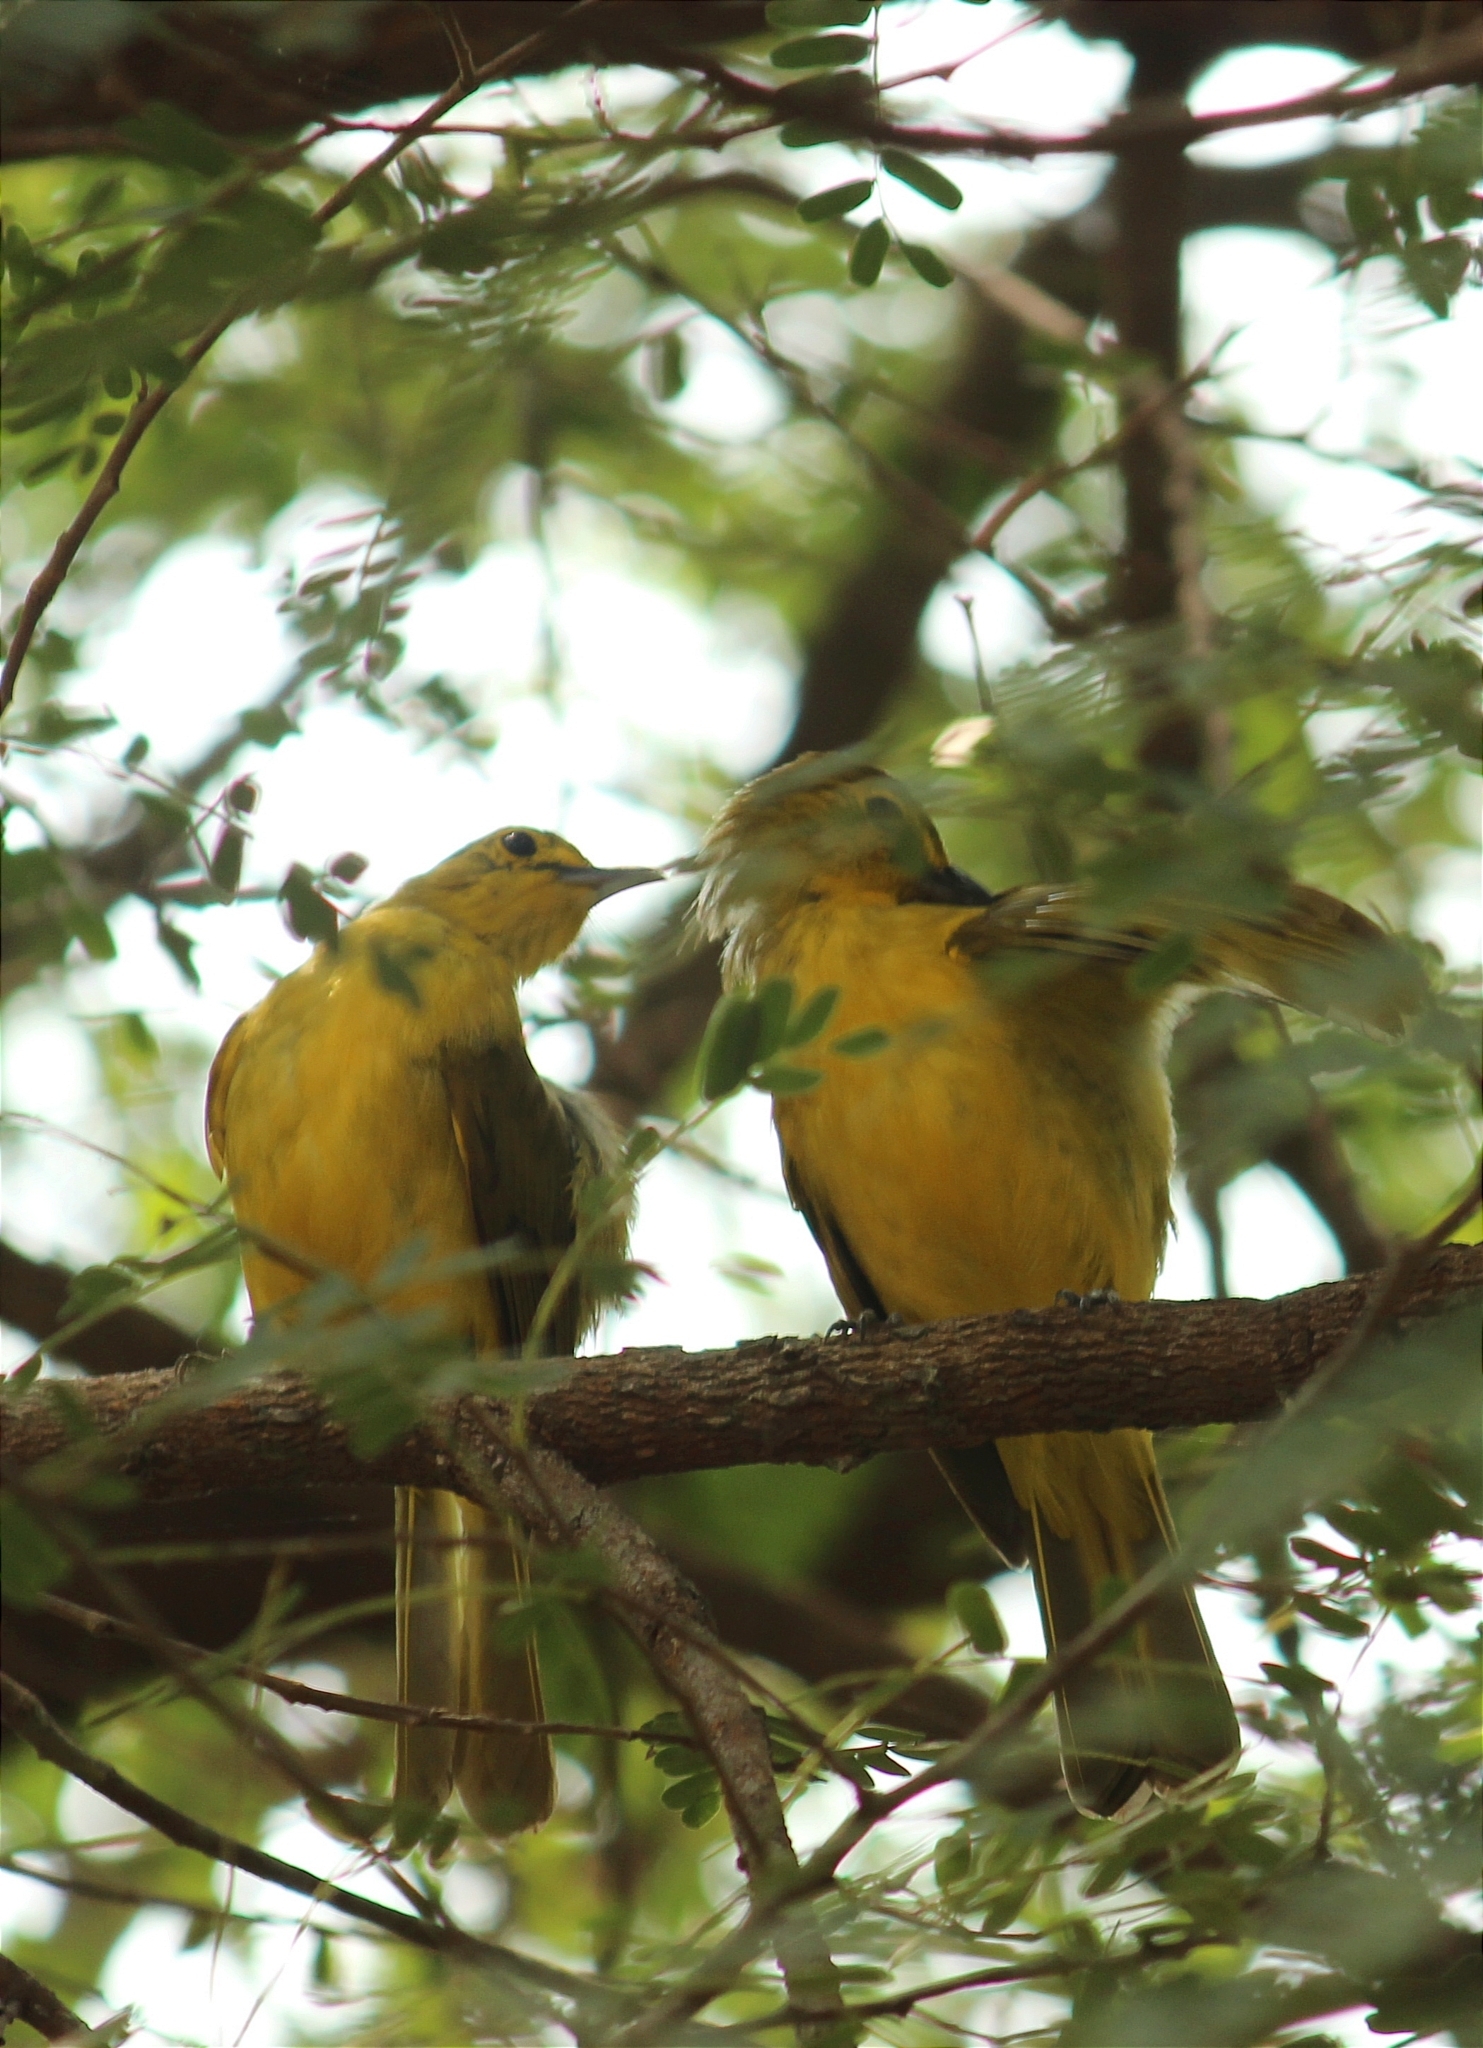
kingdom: Animalia
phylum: Chordata
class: Aves
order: Passeriformes
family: Pycnonotidae
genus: Acritillas
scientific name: Acritillas indica
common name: Yellow-browed bulbul
